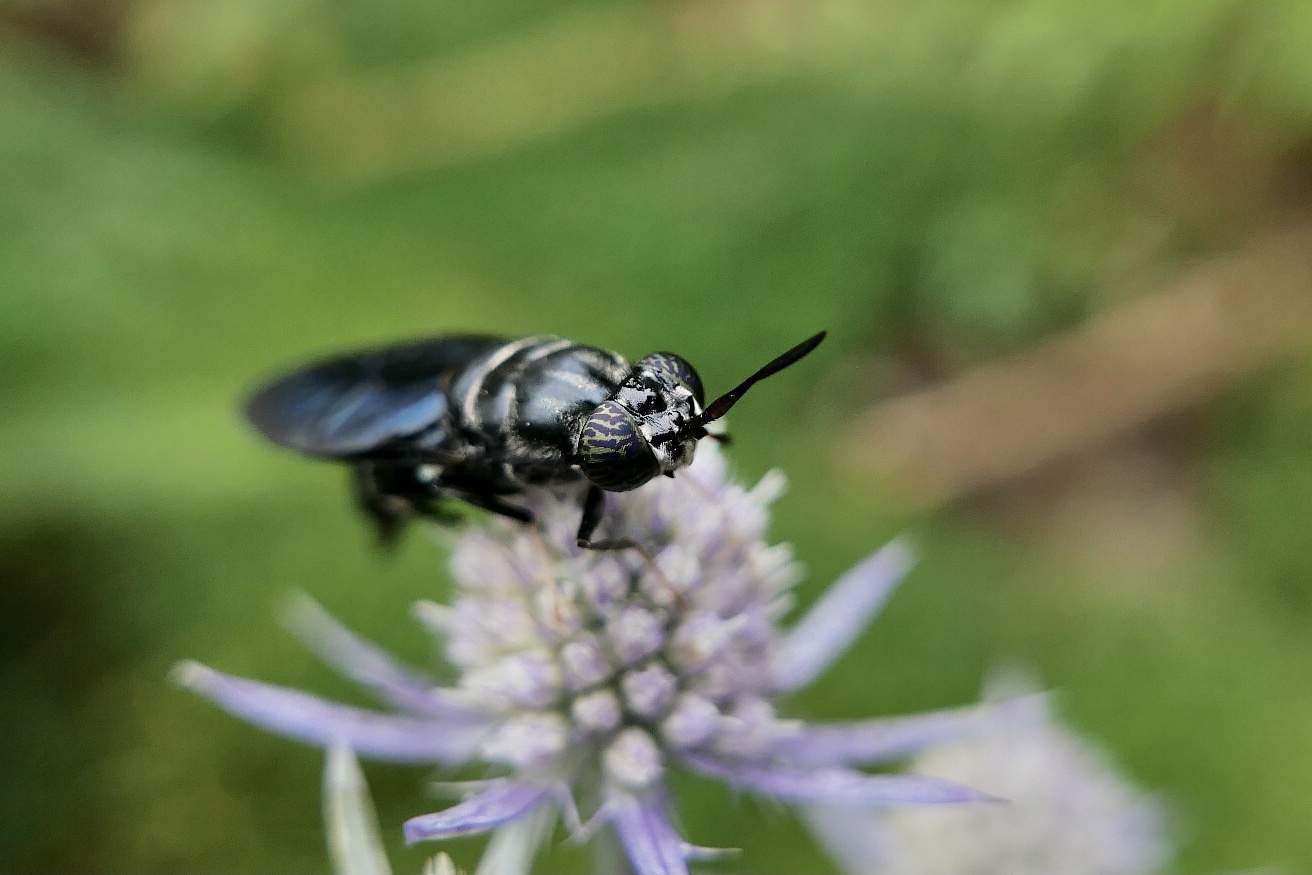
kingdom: Animalia
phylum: Arthropoda
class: Insecta
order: Diptera
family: Stratiomyidae
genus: Hermetia
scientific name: Hermetia illucens
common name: Black soldier fly
